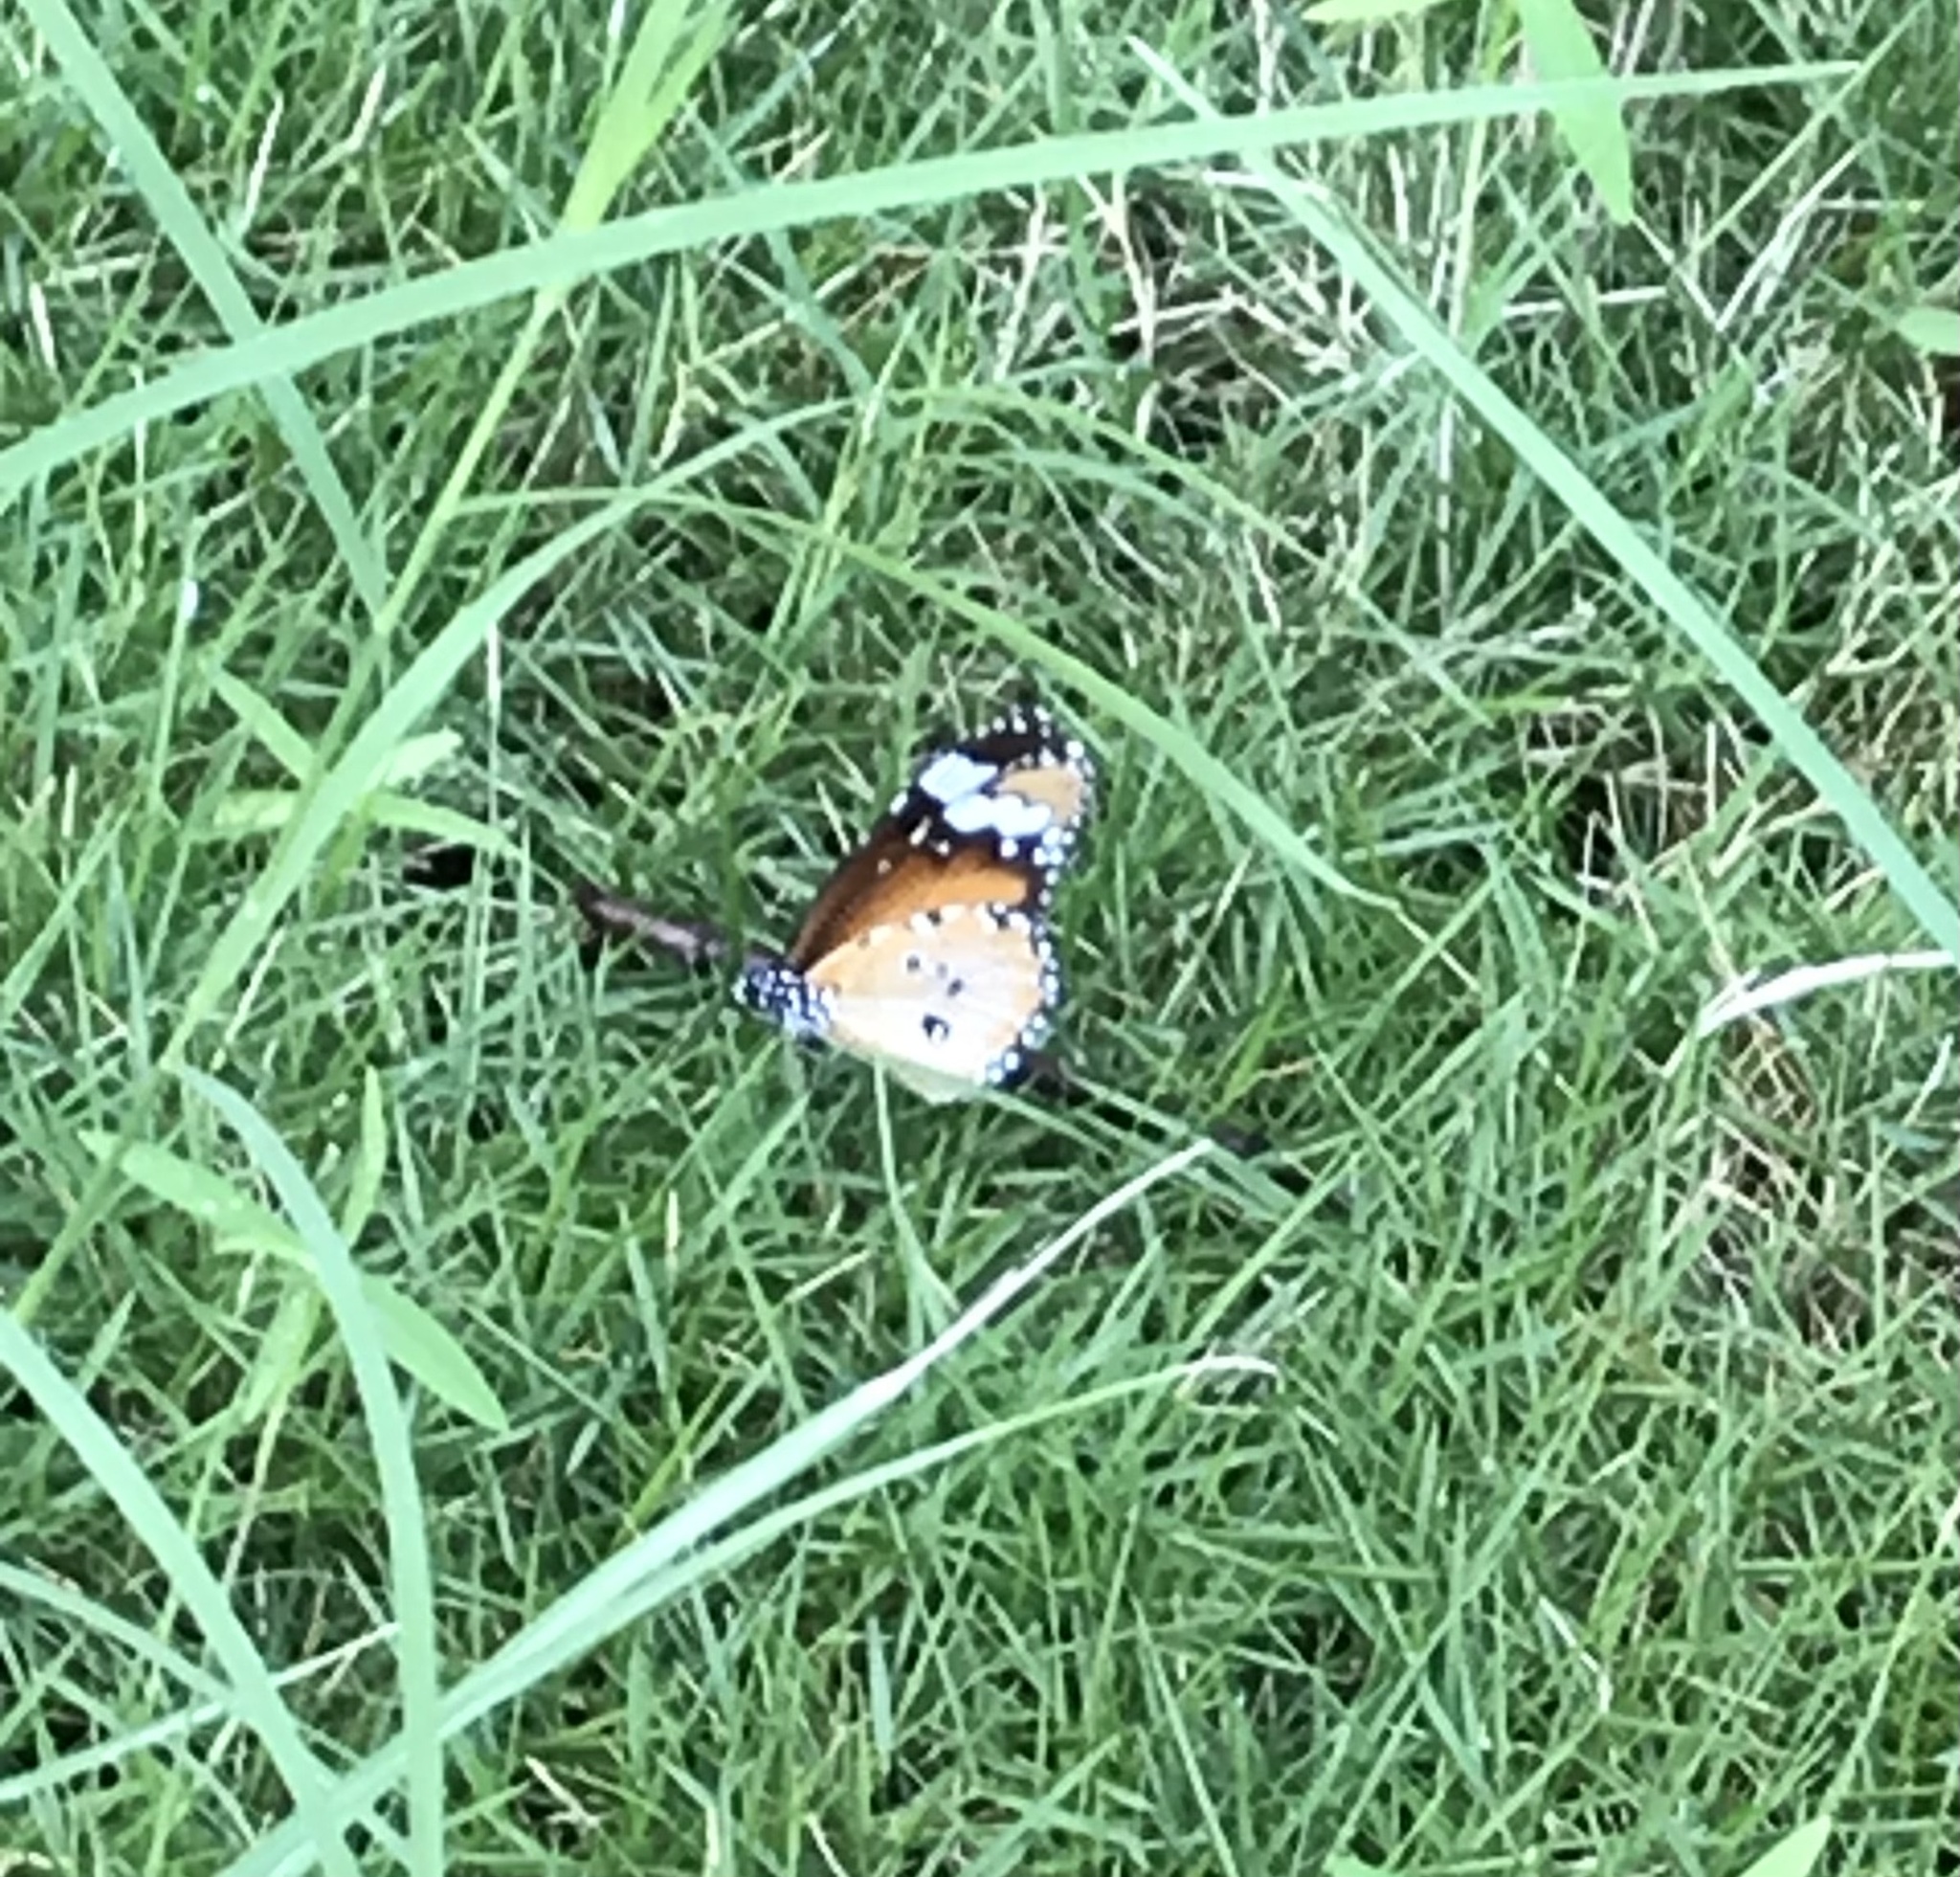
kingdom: Animalia
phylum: Arthropoda
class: Insecta
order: Lepidoptera
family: Nymphalidae
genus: Danaus
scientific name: Danaus chrysippus
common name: Plain tiger
